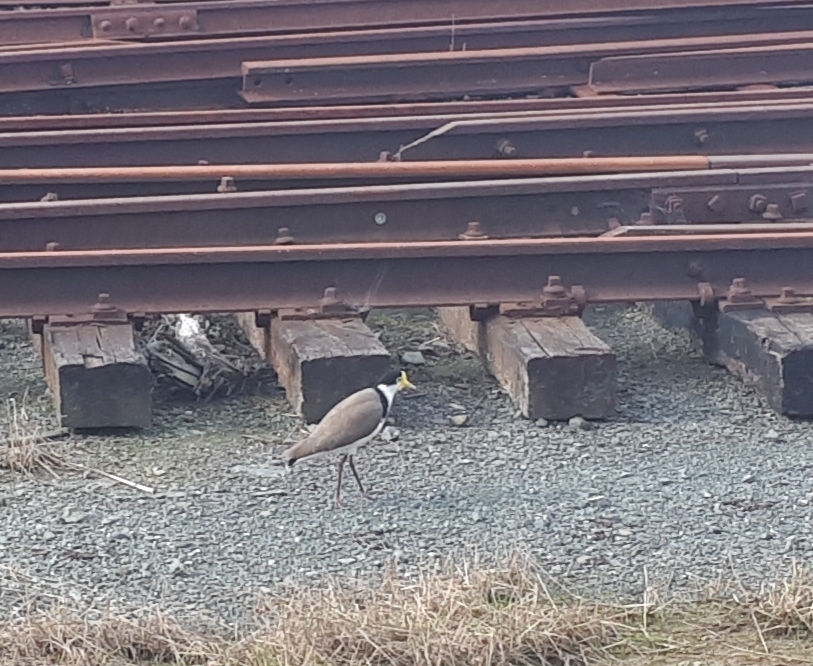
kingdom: Animalia
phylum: Chordata
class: Aves
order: Charadriiformes
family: Charadriidae
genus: Vanellus
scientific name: Vanellus miles
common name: Masked lapwing
